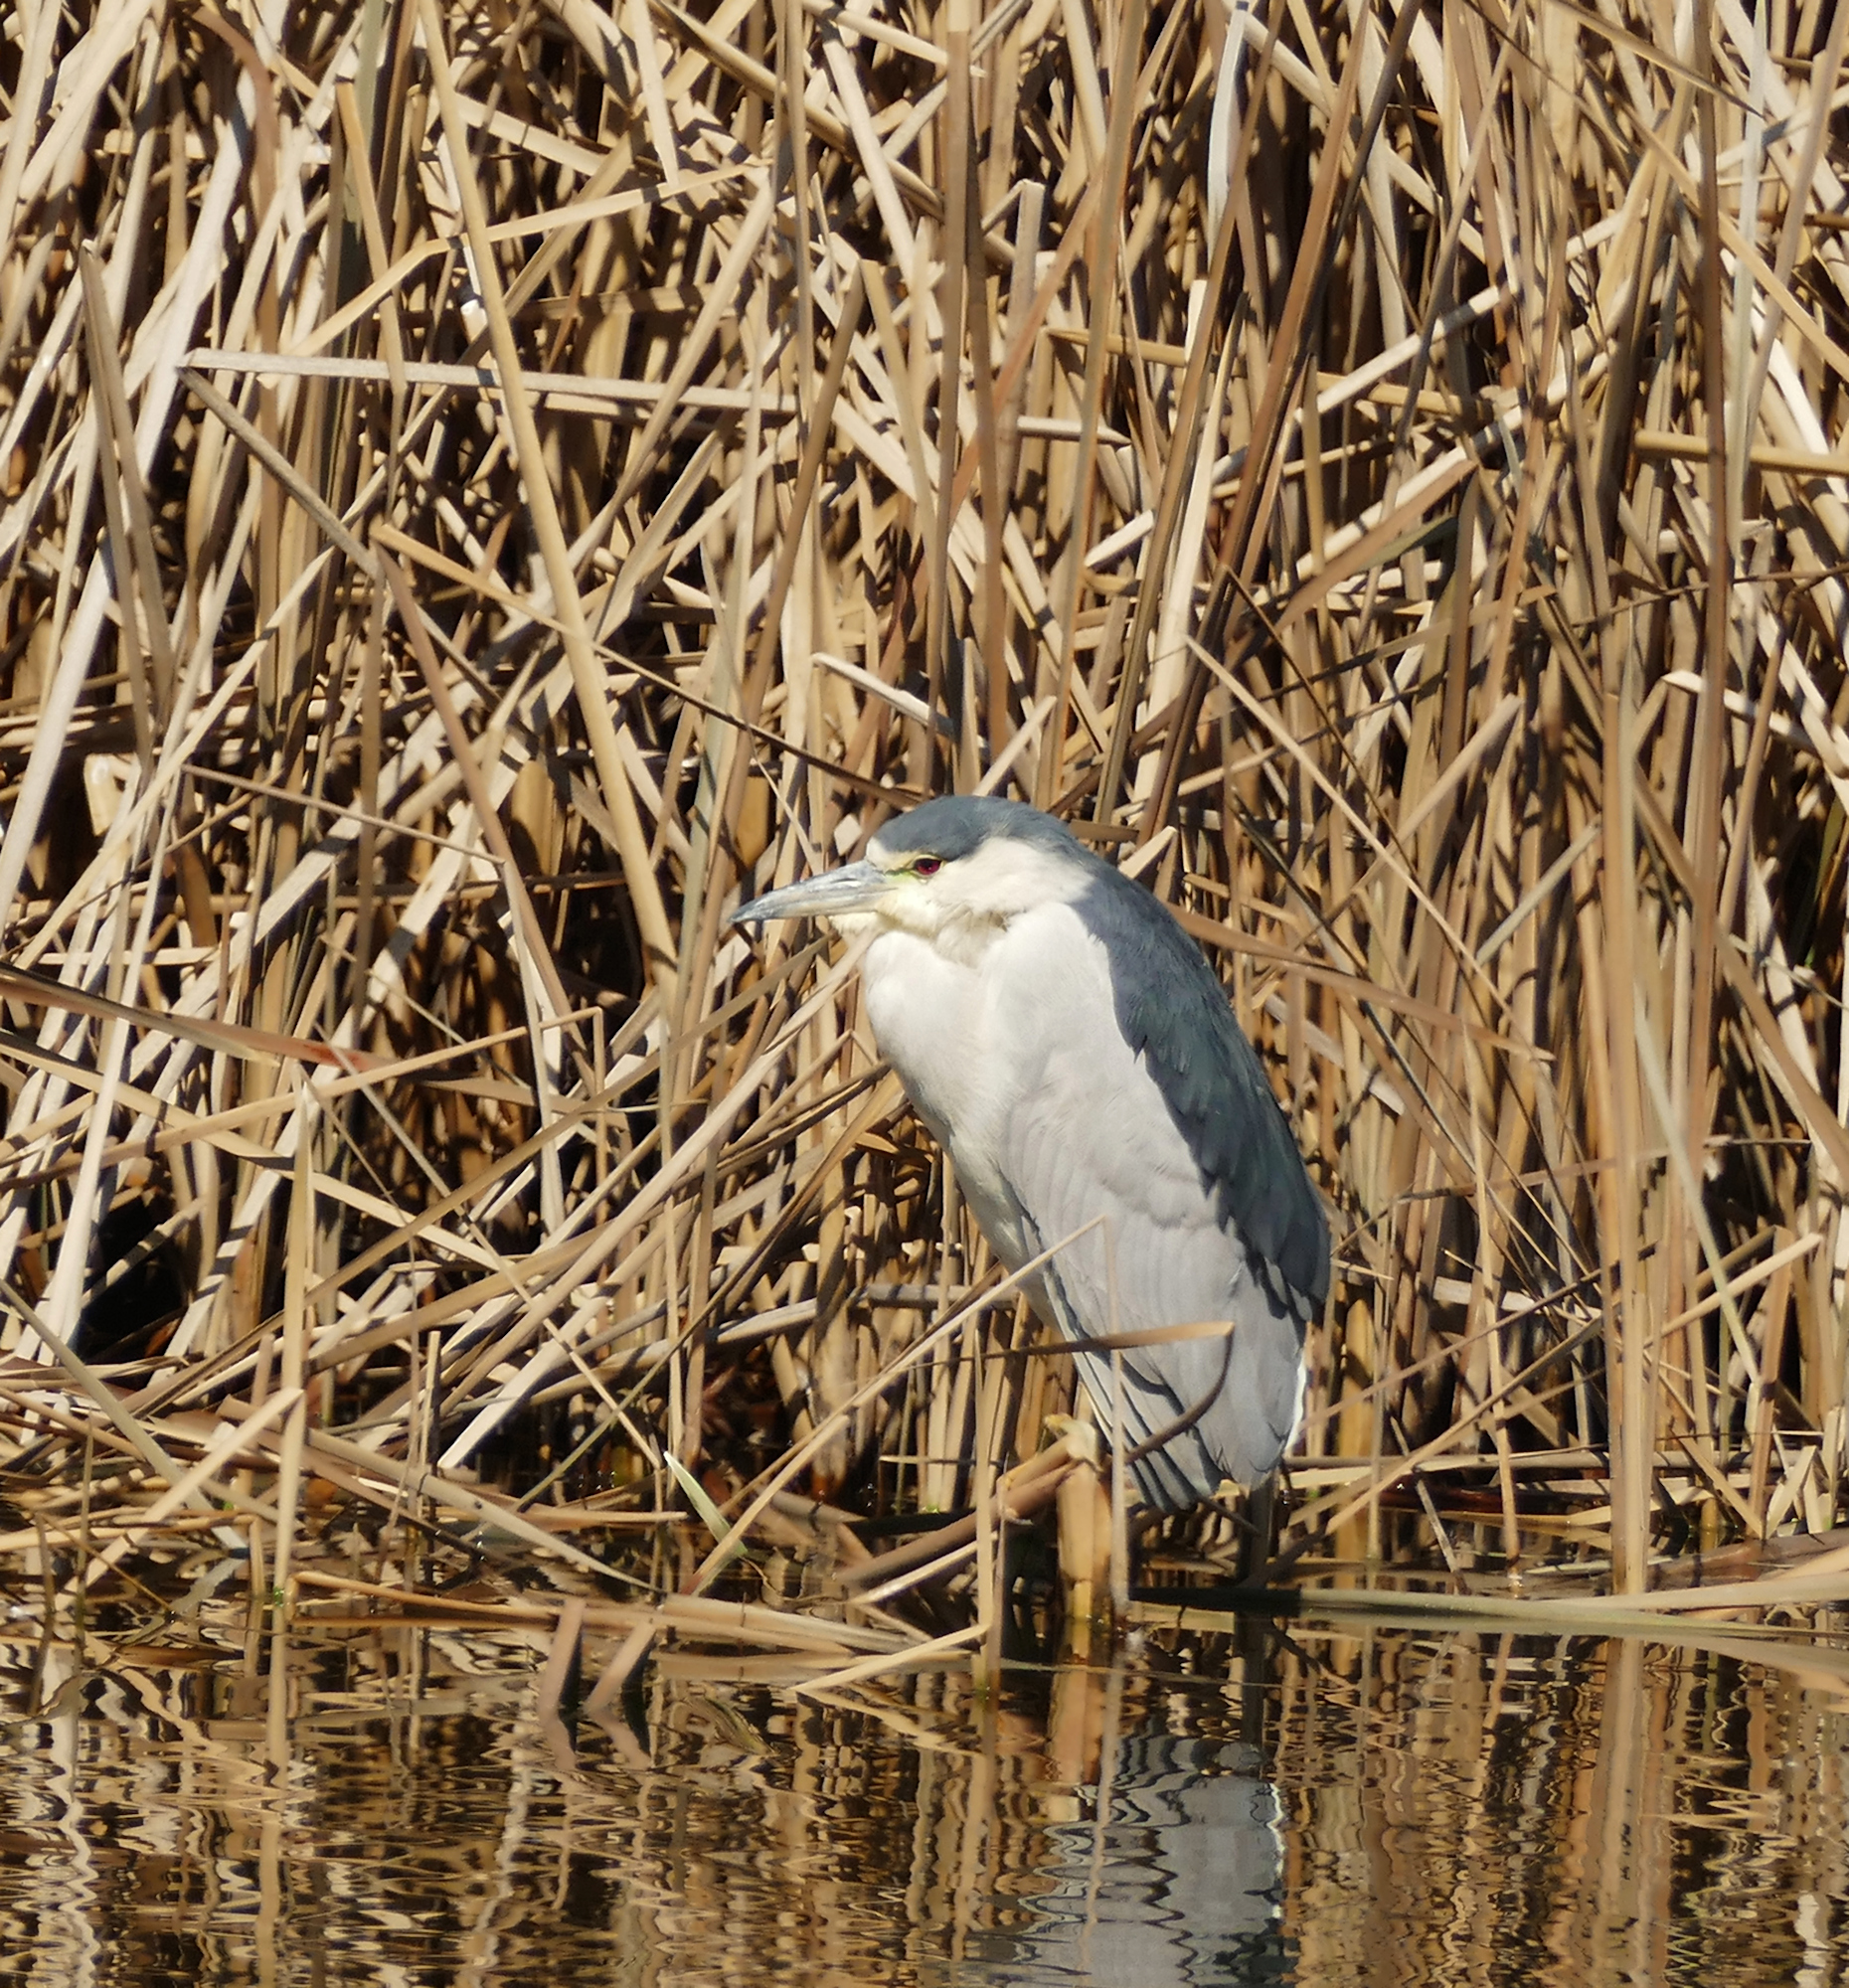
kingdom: Animalia
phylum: Chordata
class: Aves
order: Pelecaniformes
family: Ardeidae
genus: Nycticorax
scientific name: Nycticorax nycticorax
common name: Black-crowned night heron
